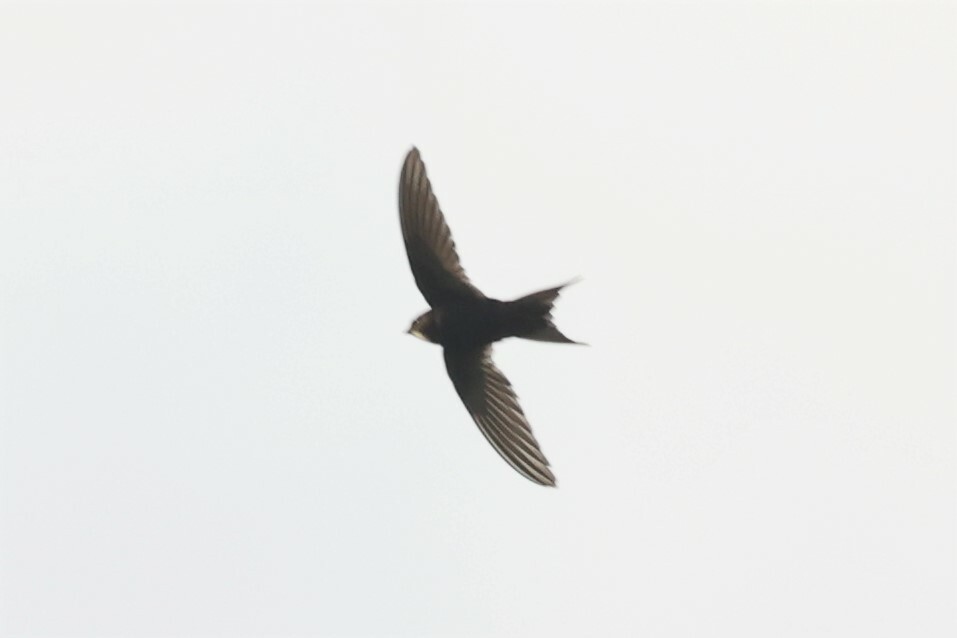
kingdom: Animalia
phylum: Chordata
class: Aves
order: Apodiformes
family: Apodidae
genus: Apus
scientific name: Apus caffer
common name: White-rumped swift
